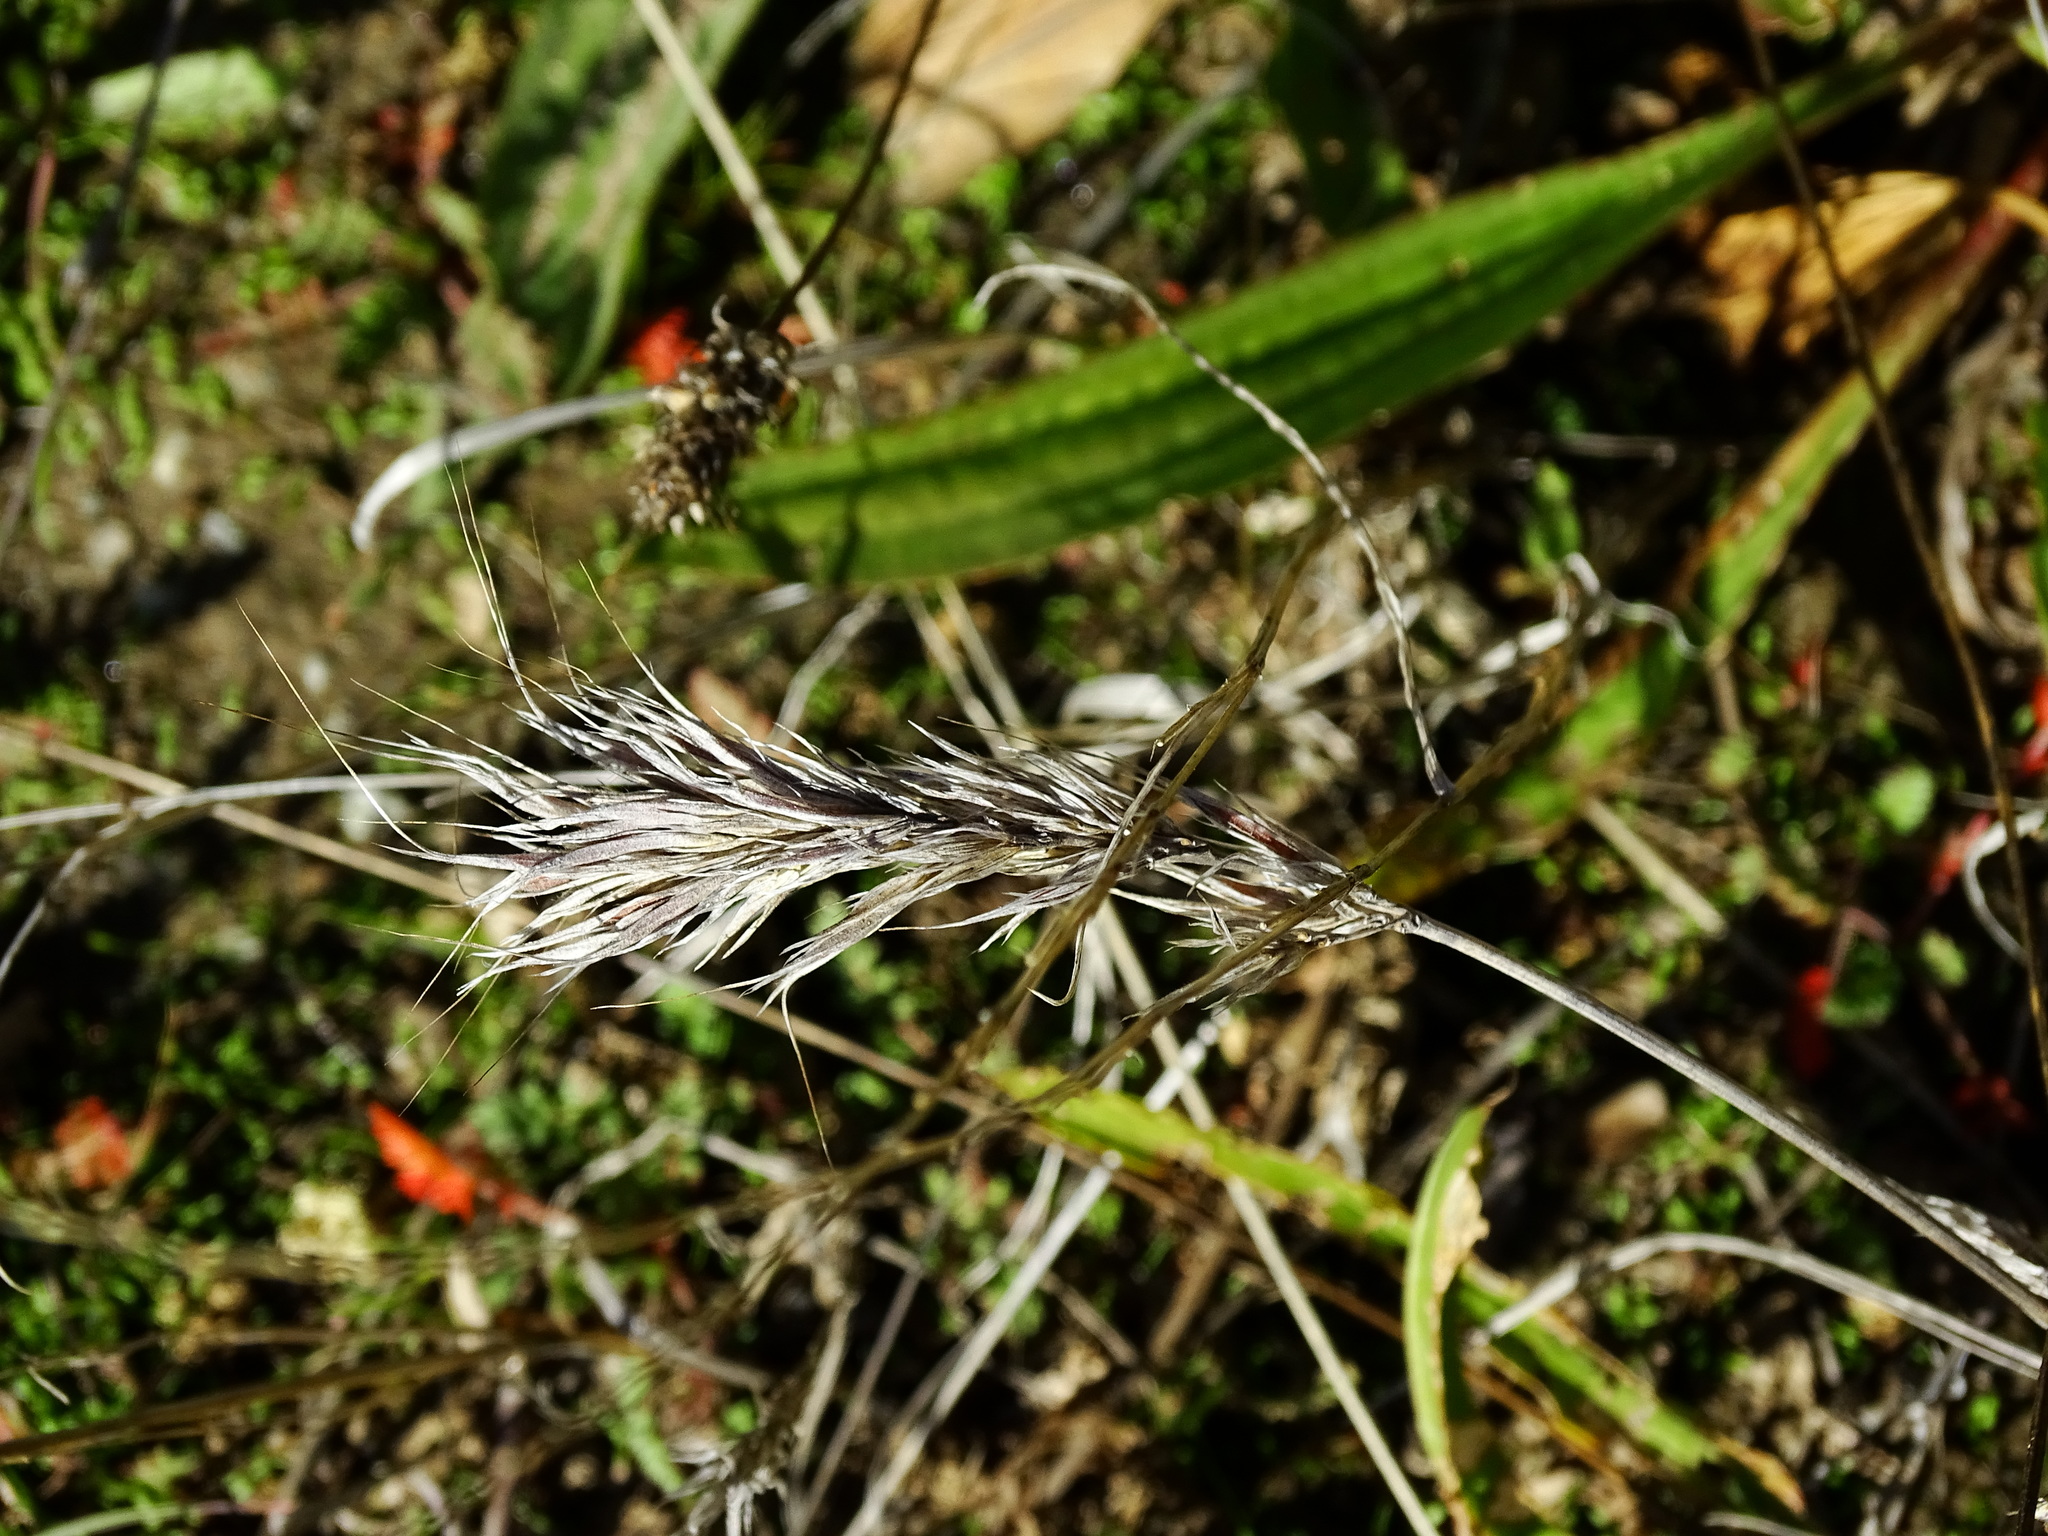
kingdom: Plantae
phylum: Tracheophyta
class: Liliopsida
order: Poales
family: Poaceae
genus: Bromus
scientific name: Bromus madritensis
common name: Compact brome
